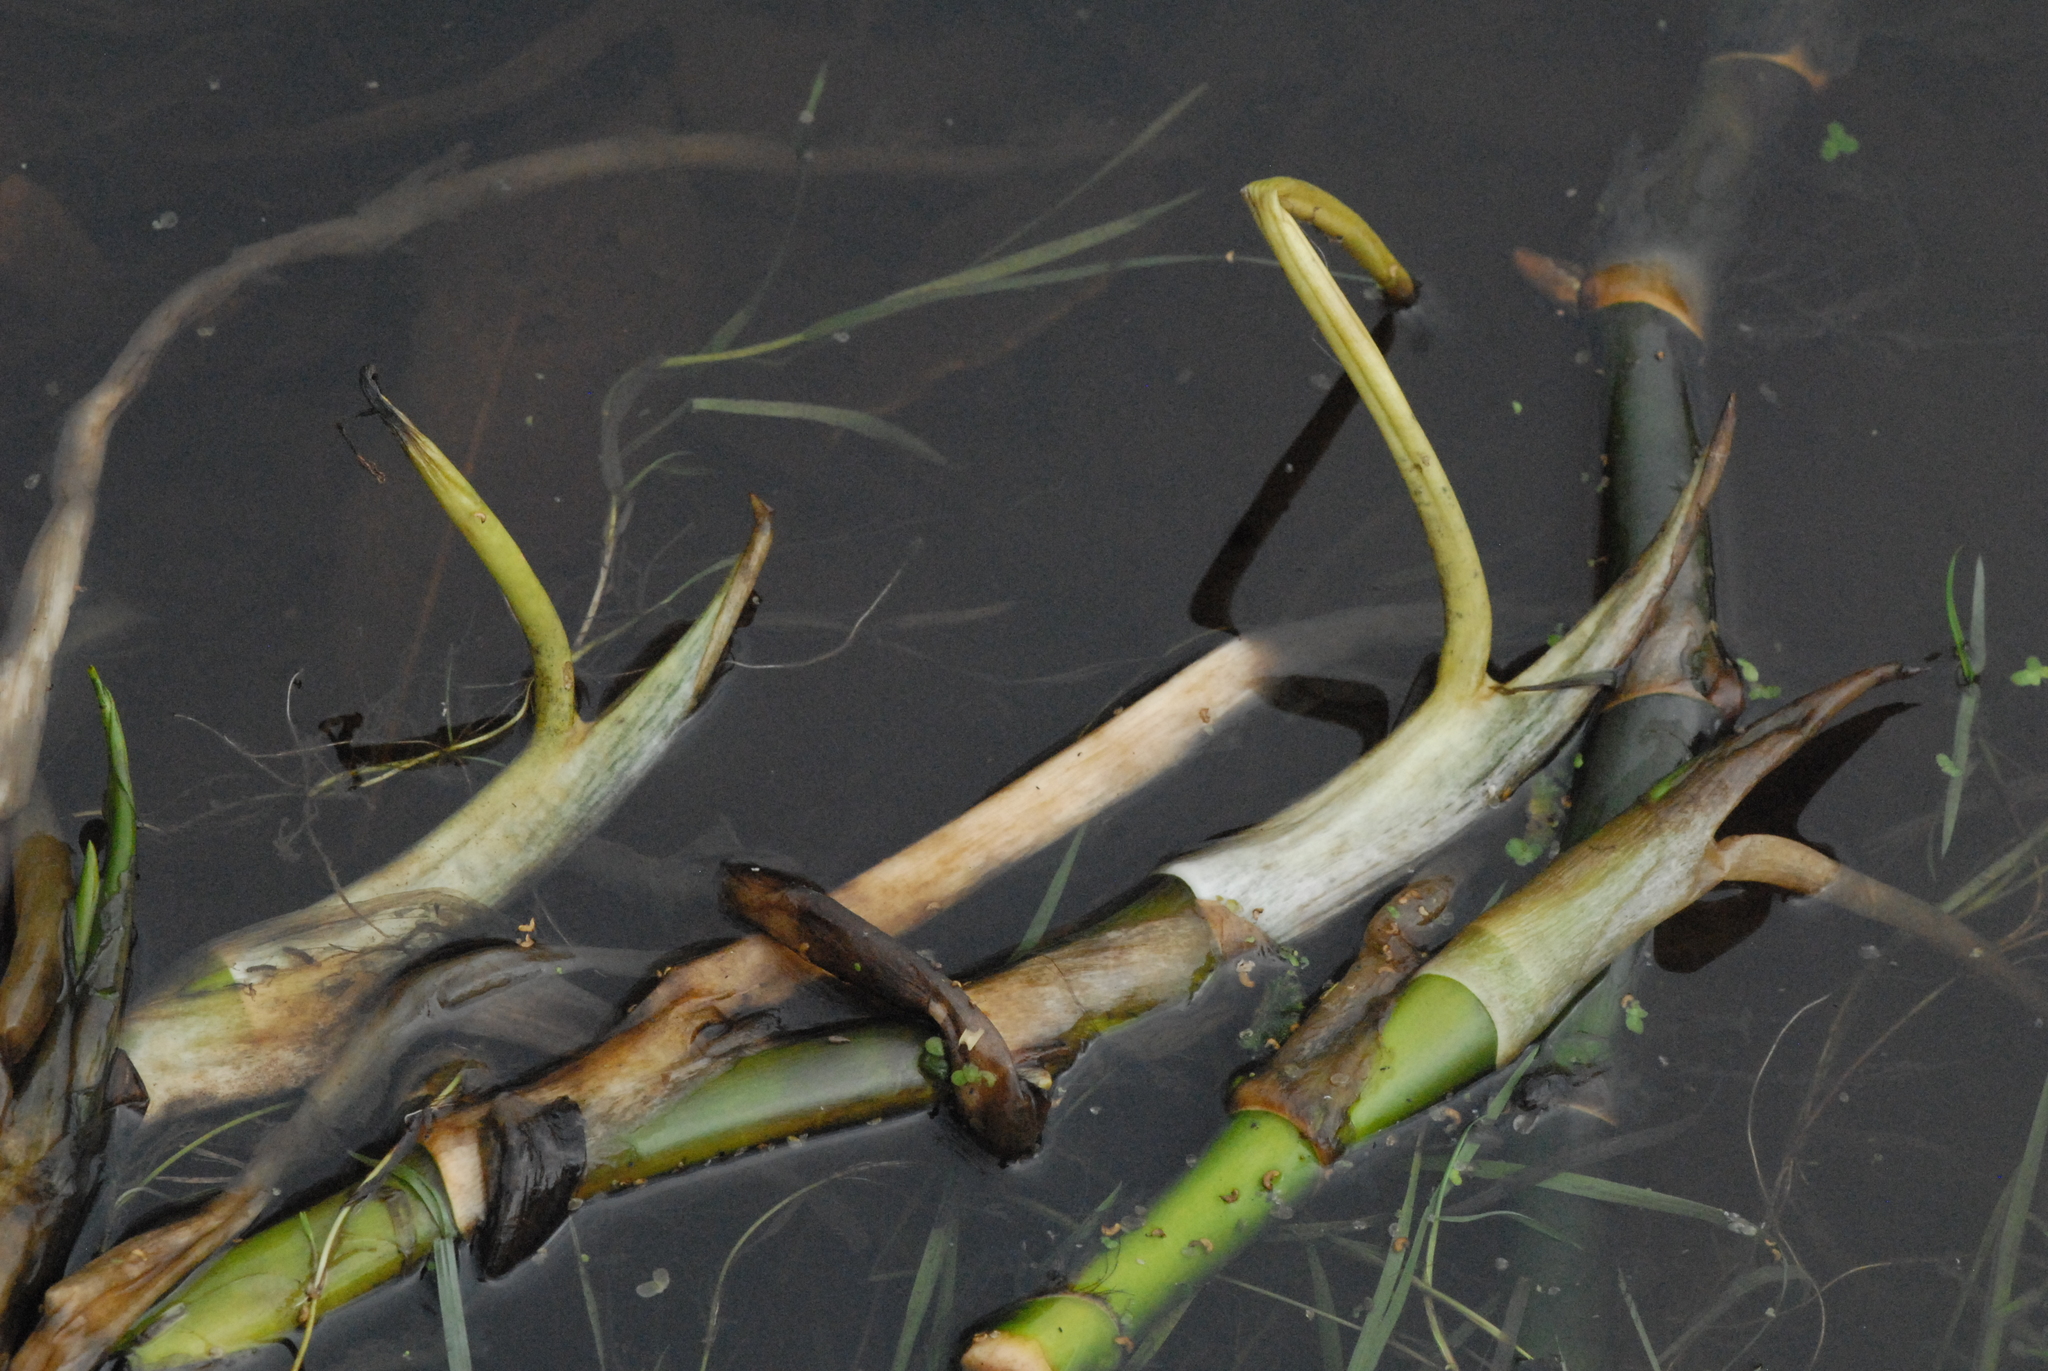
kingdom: Plantae
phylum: Tracheophyta
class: Magnoliopsida
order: Nymphaeales
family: Nymphaeaceae
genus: Nuphar
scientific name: Nuphar lutea
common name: Yellow water-lily
